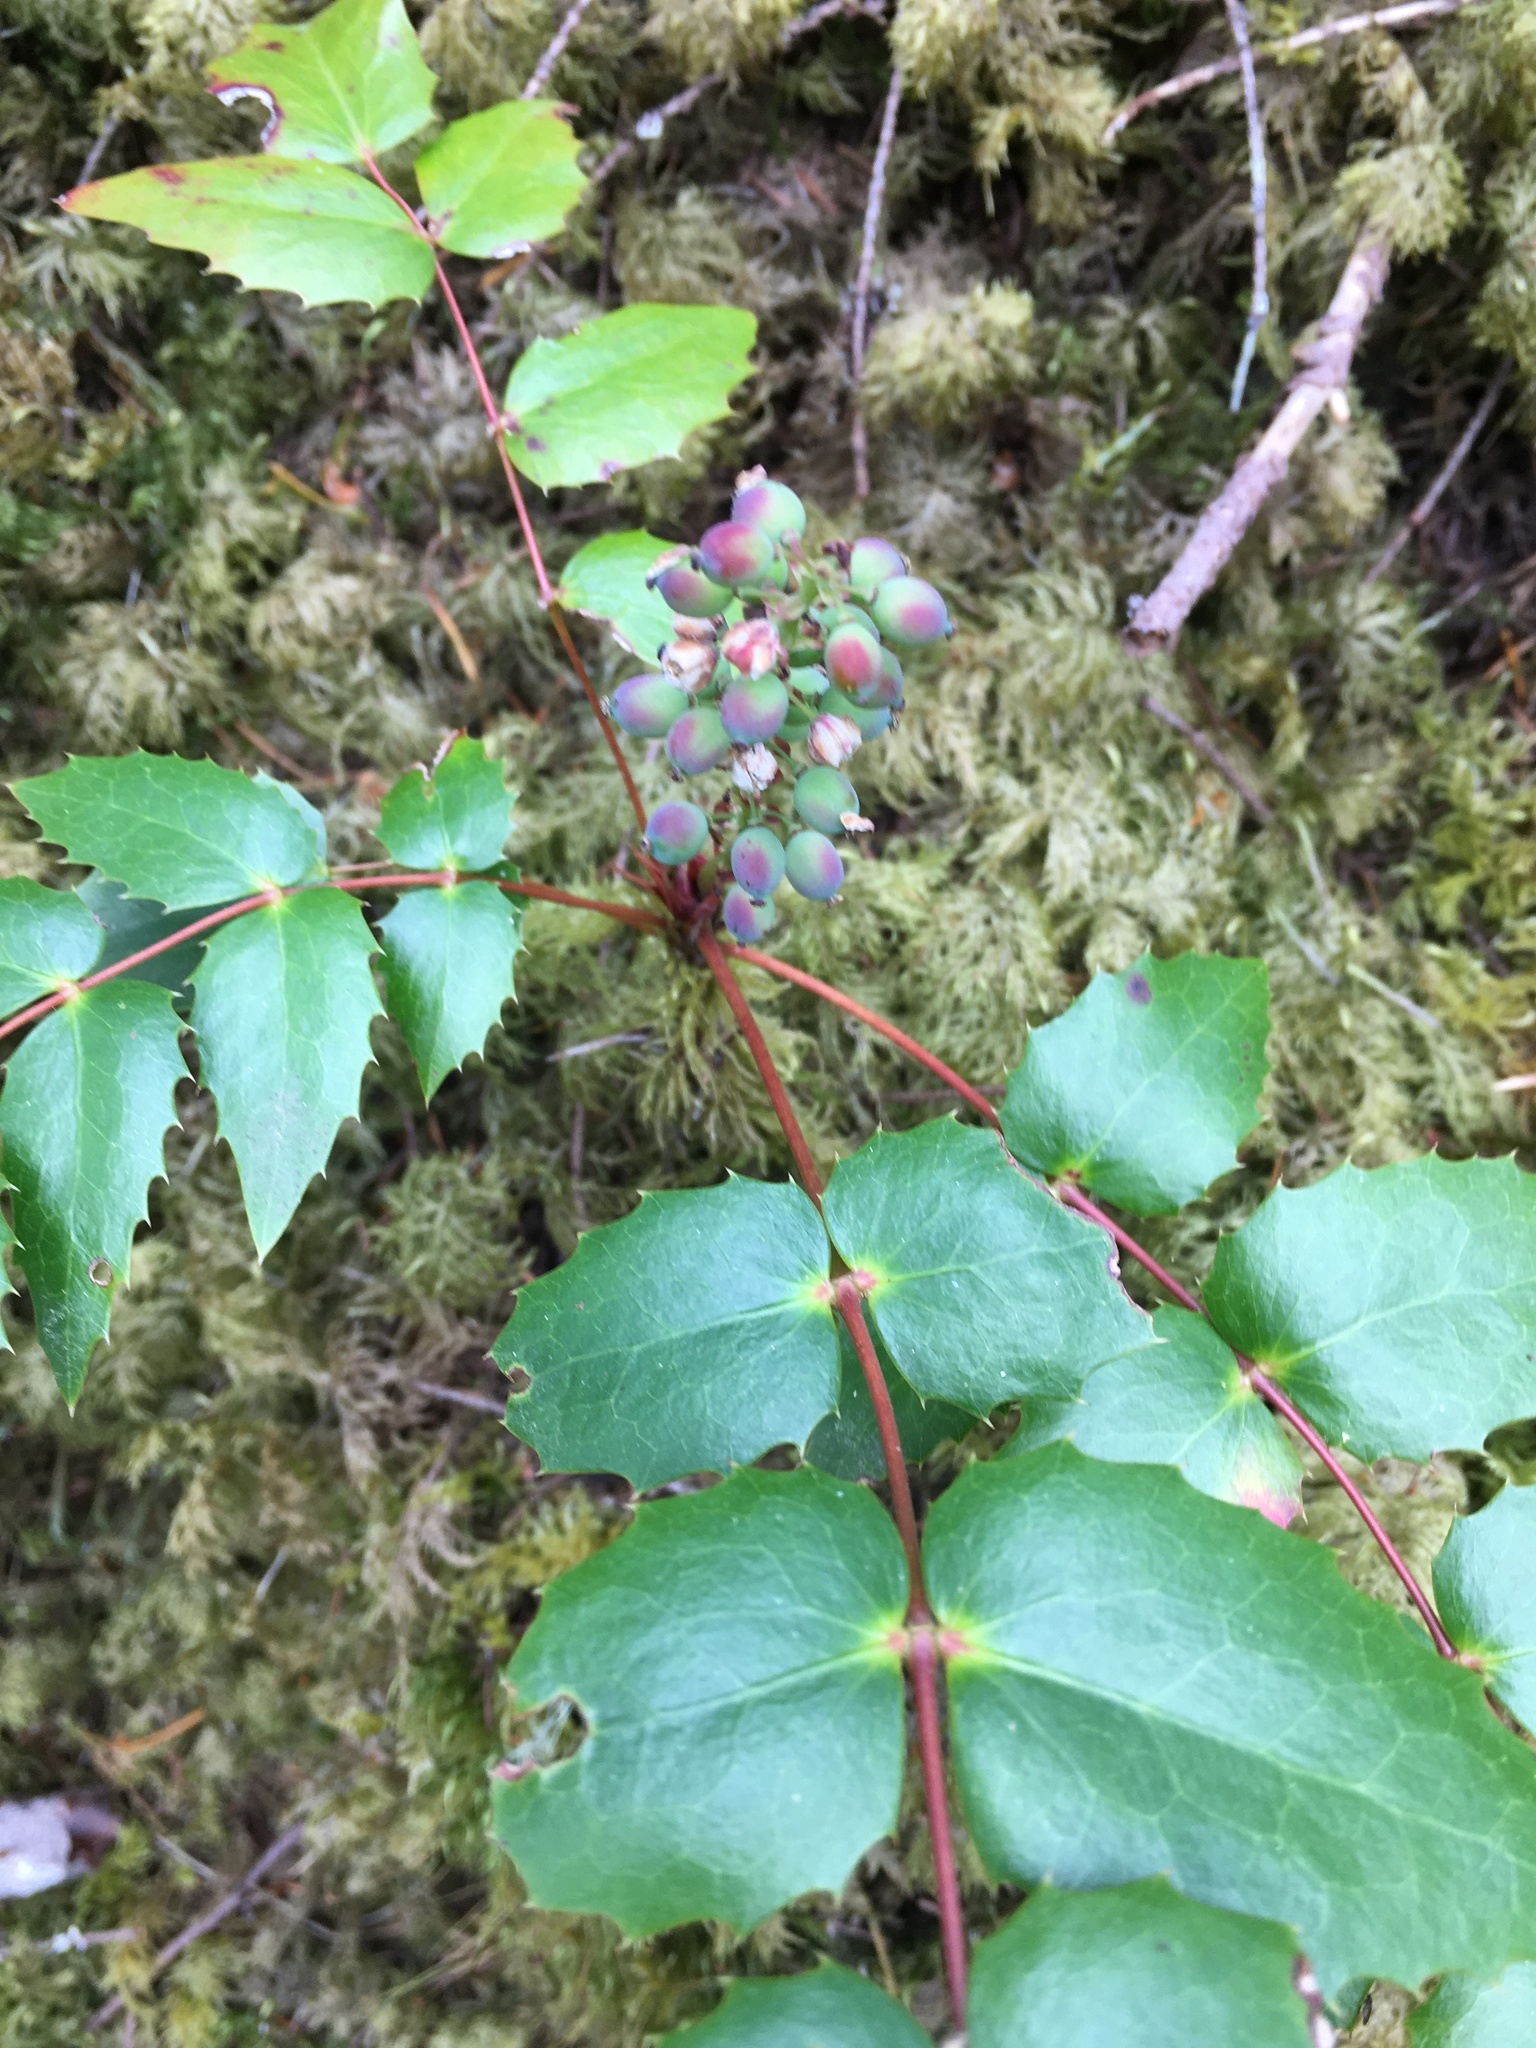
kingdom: Plantae
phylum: Tracheophyta
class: Magnoliopsida
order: Ranunculales
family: Berberidaceae
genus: Mahonia
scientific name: Mahonia nervosa
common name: Cascade oregon-grape
